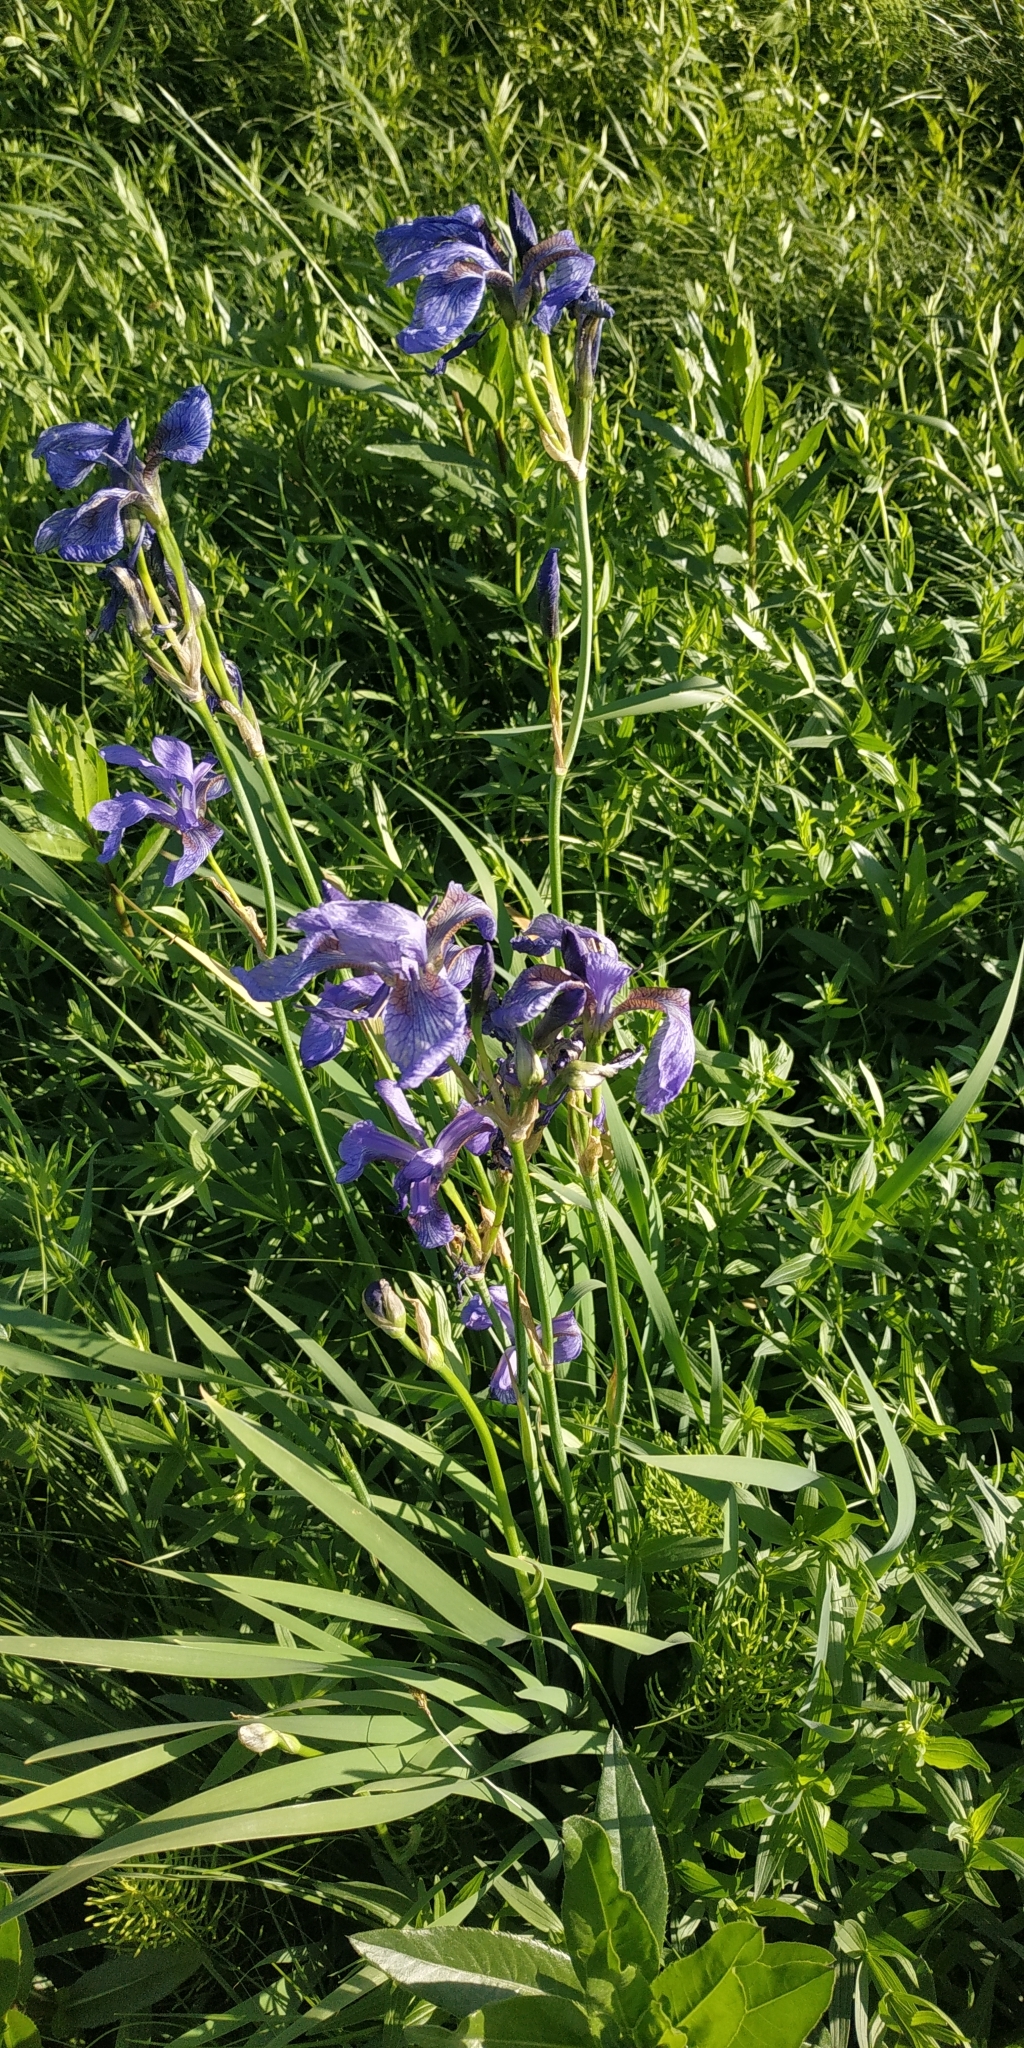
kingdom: Plantae
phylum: Tracheophyta
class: Liliopsida
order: Asparagales
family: Iridaceae
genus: Iris
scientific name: Iris sibirica
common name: Siberian iris
